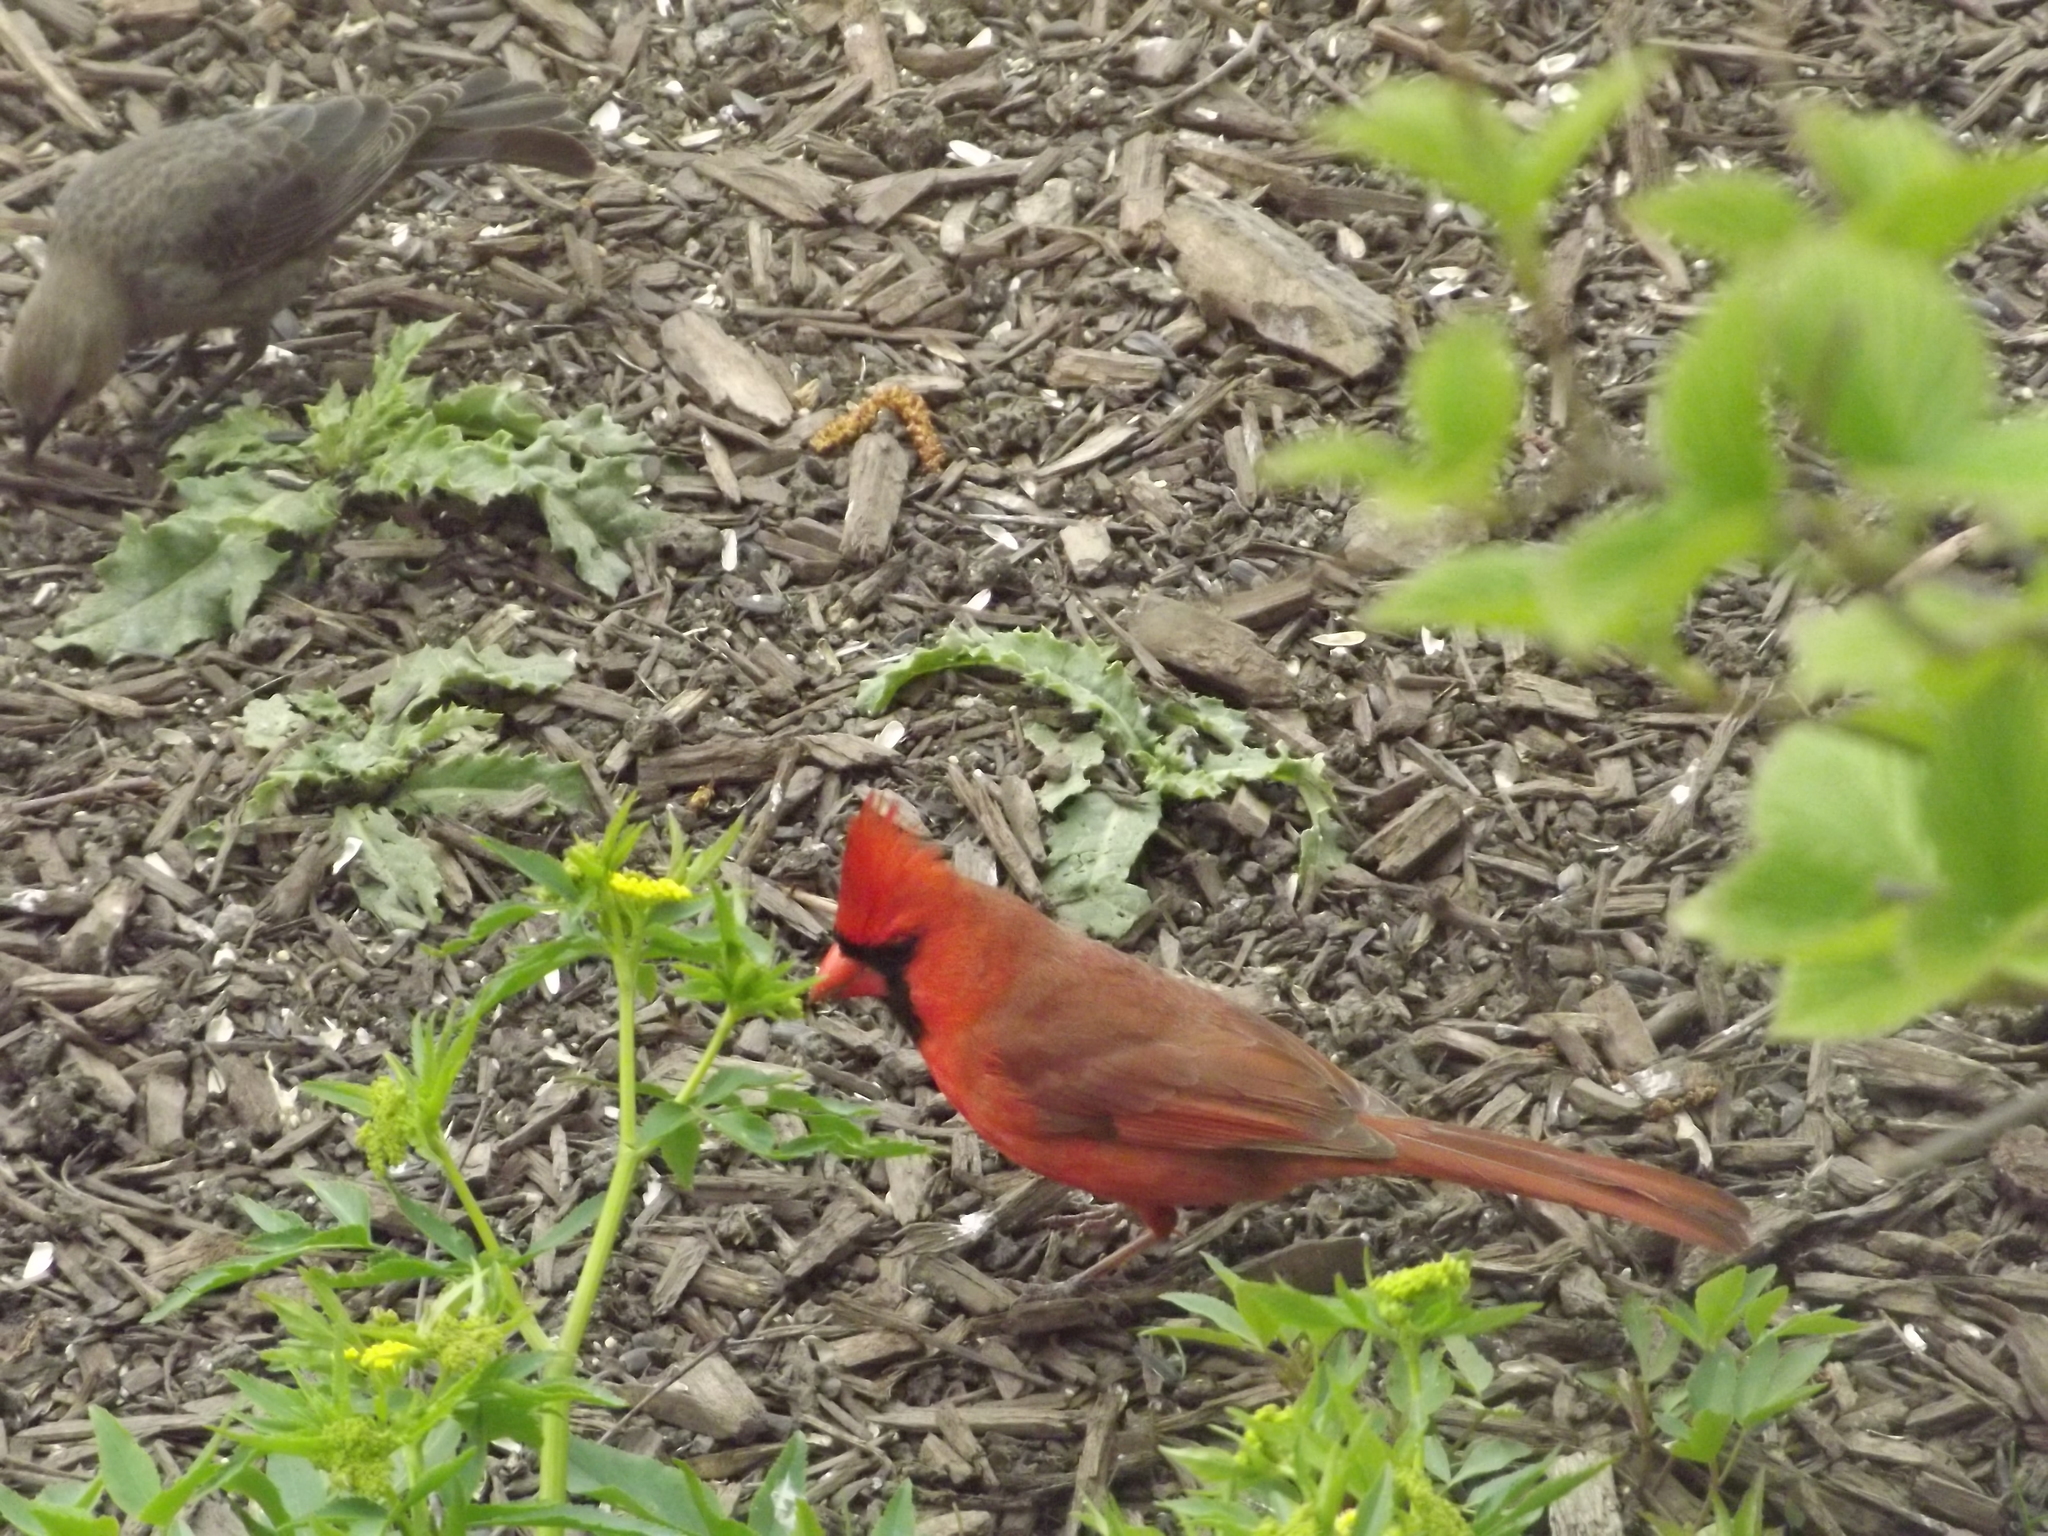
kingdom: Animalia
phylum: Chordata
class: Aves
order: Passeriformes
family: Icteridae
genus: Molothrus
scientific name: Molothrus ater
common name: Brown-headed cowbird
